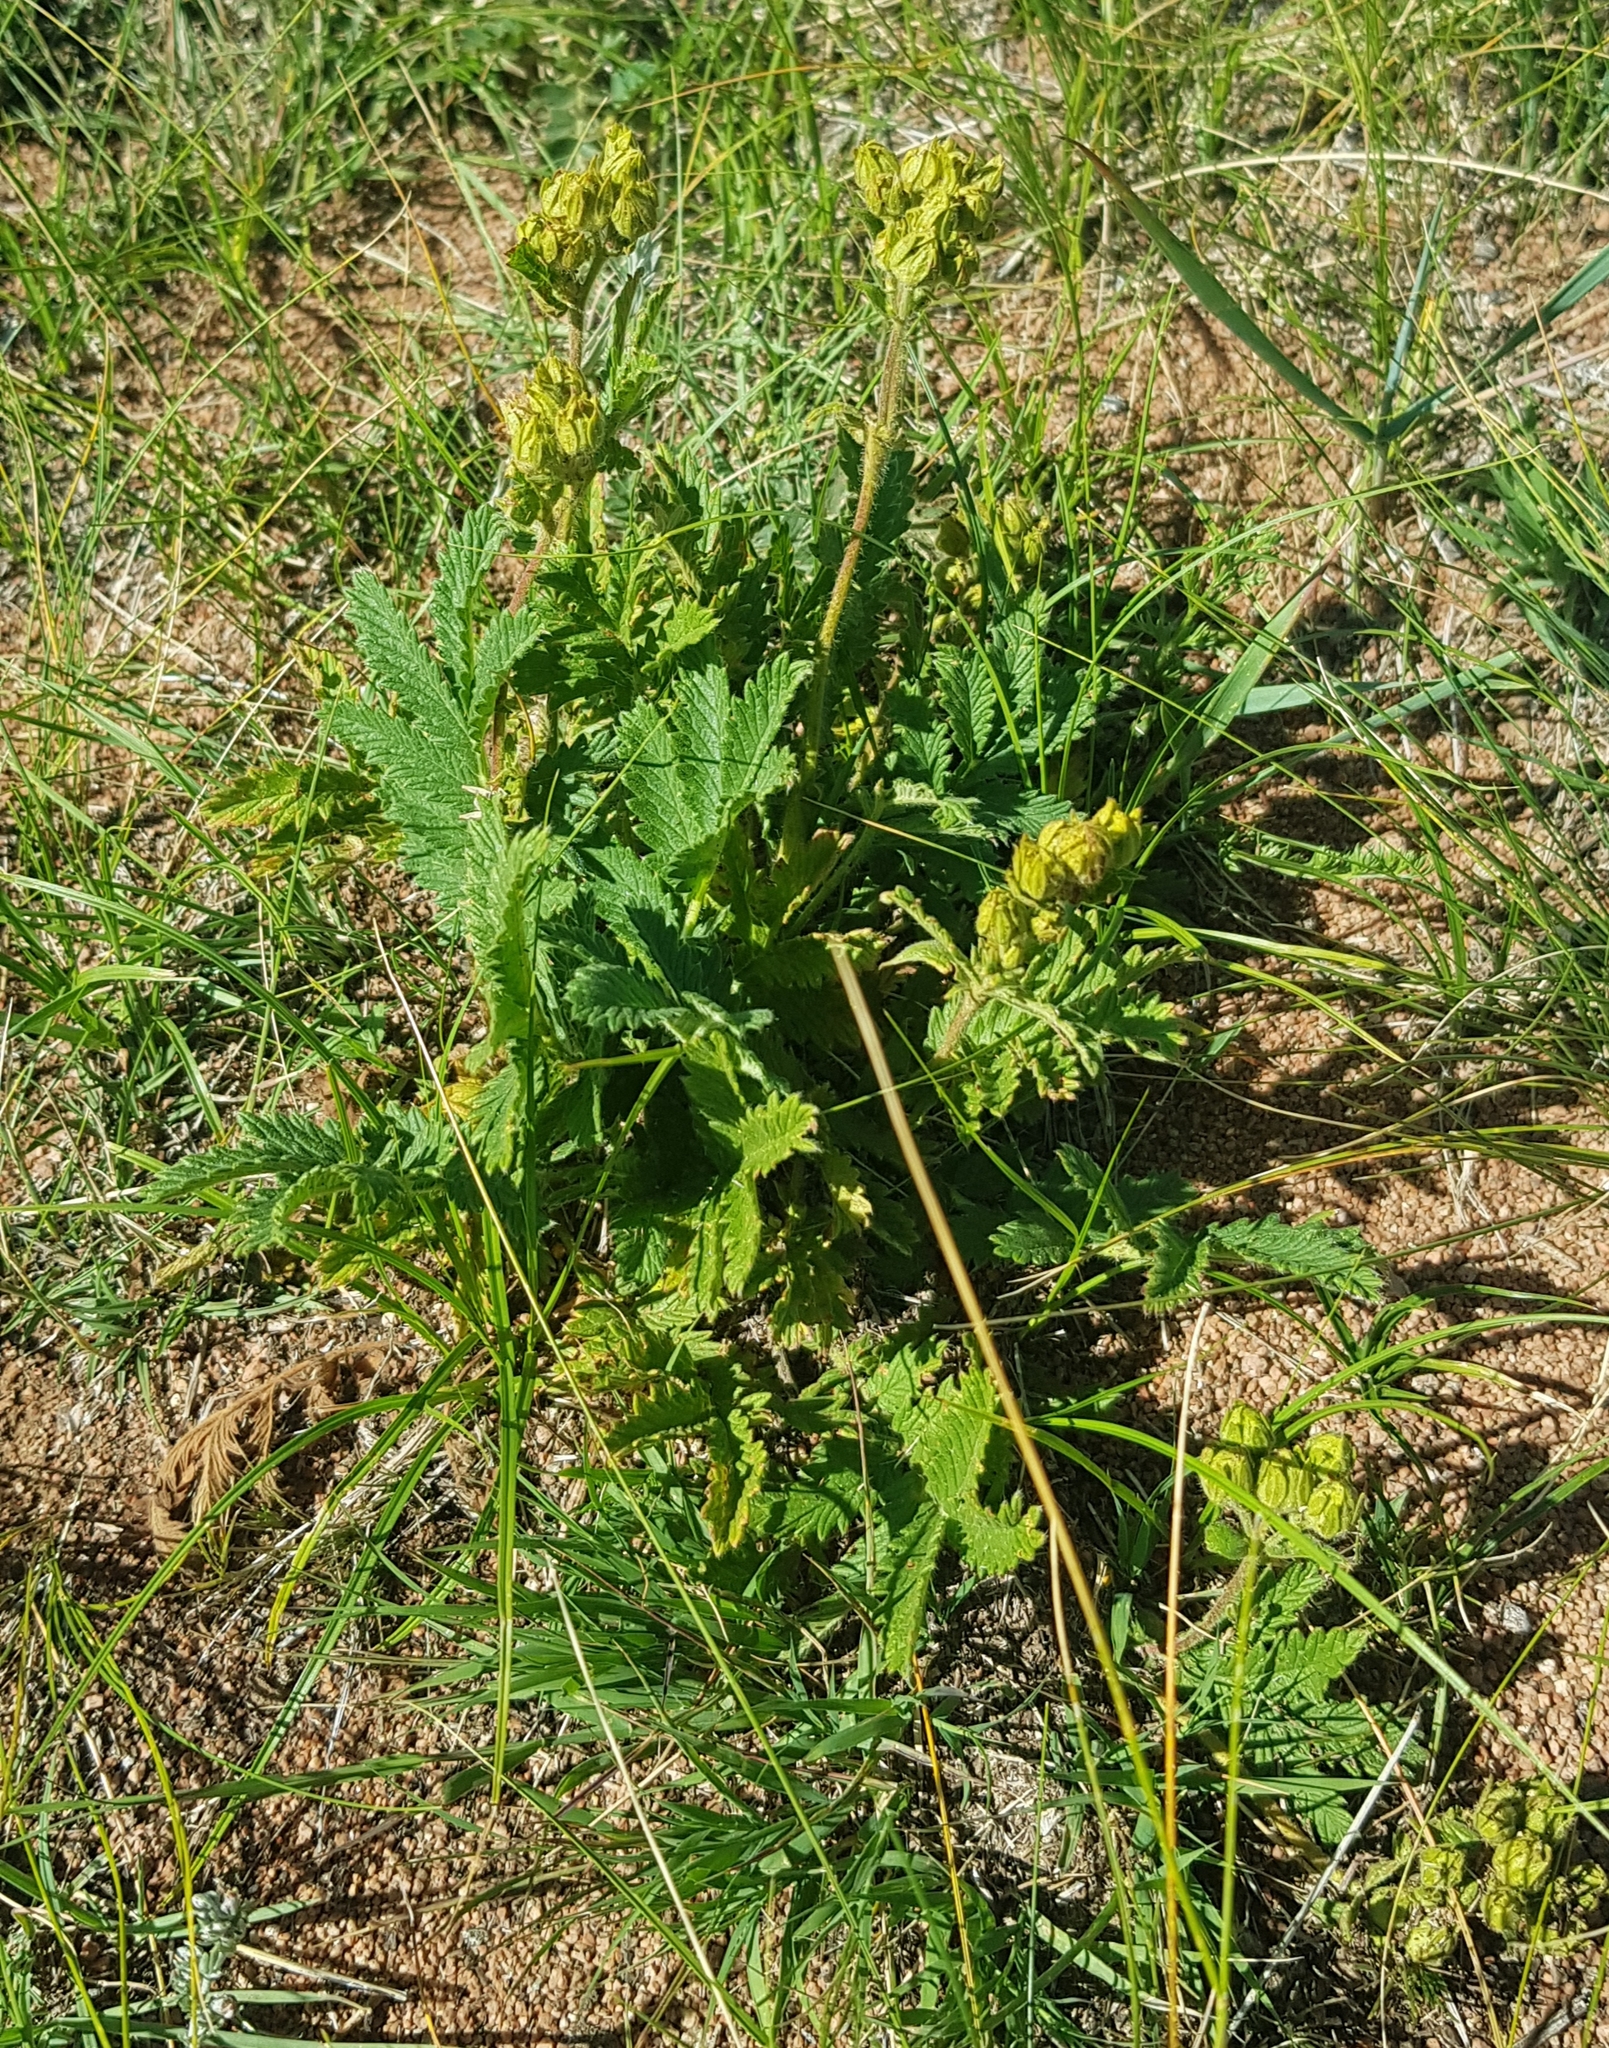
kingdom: Plantae
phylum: Tracheophyta
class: Magnoliopsida
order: Rosales
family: Rosaceae
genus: Potentilla
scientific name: Potentilla tanacetifolia
